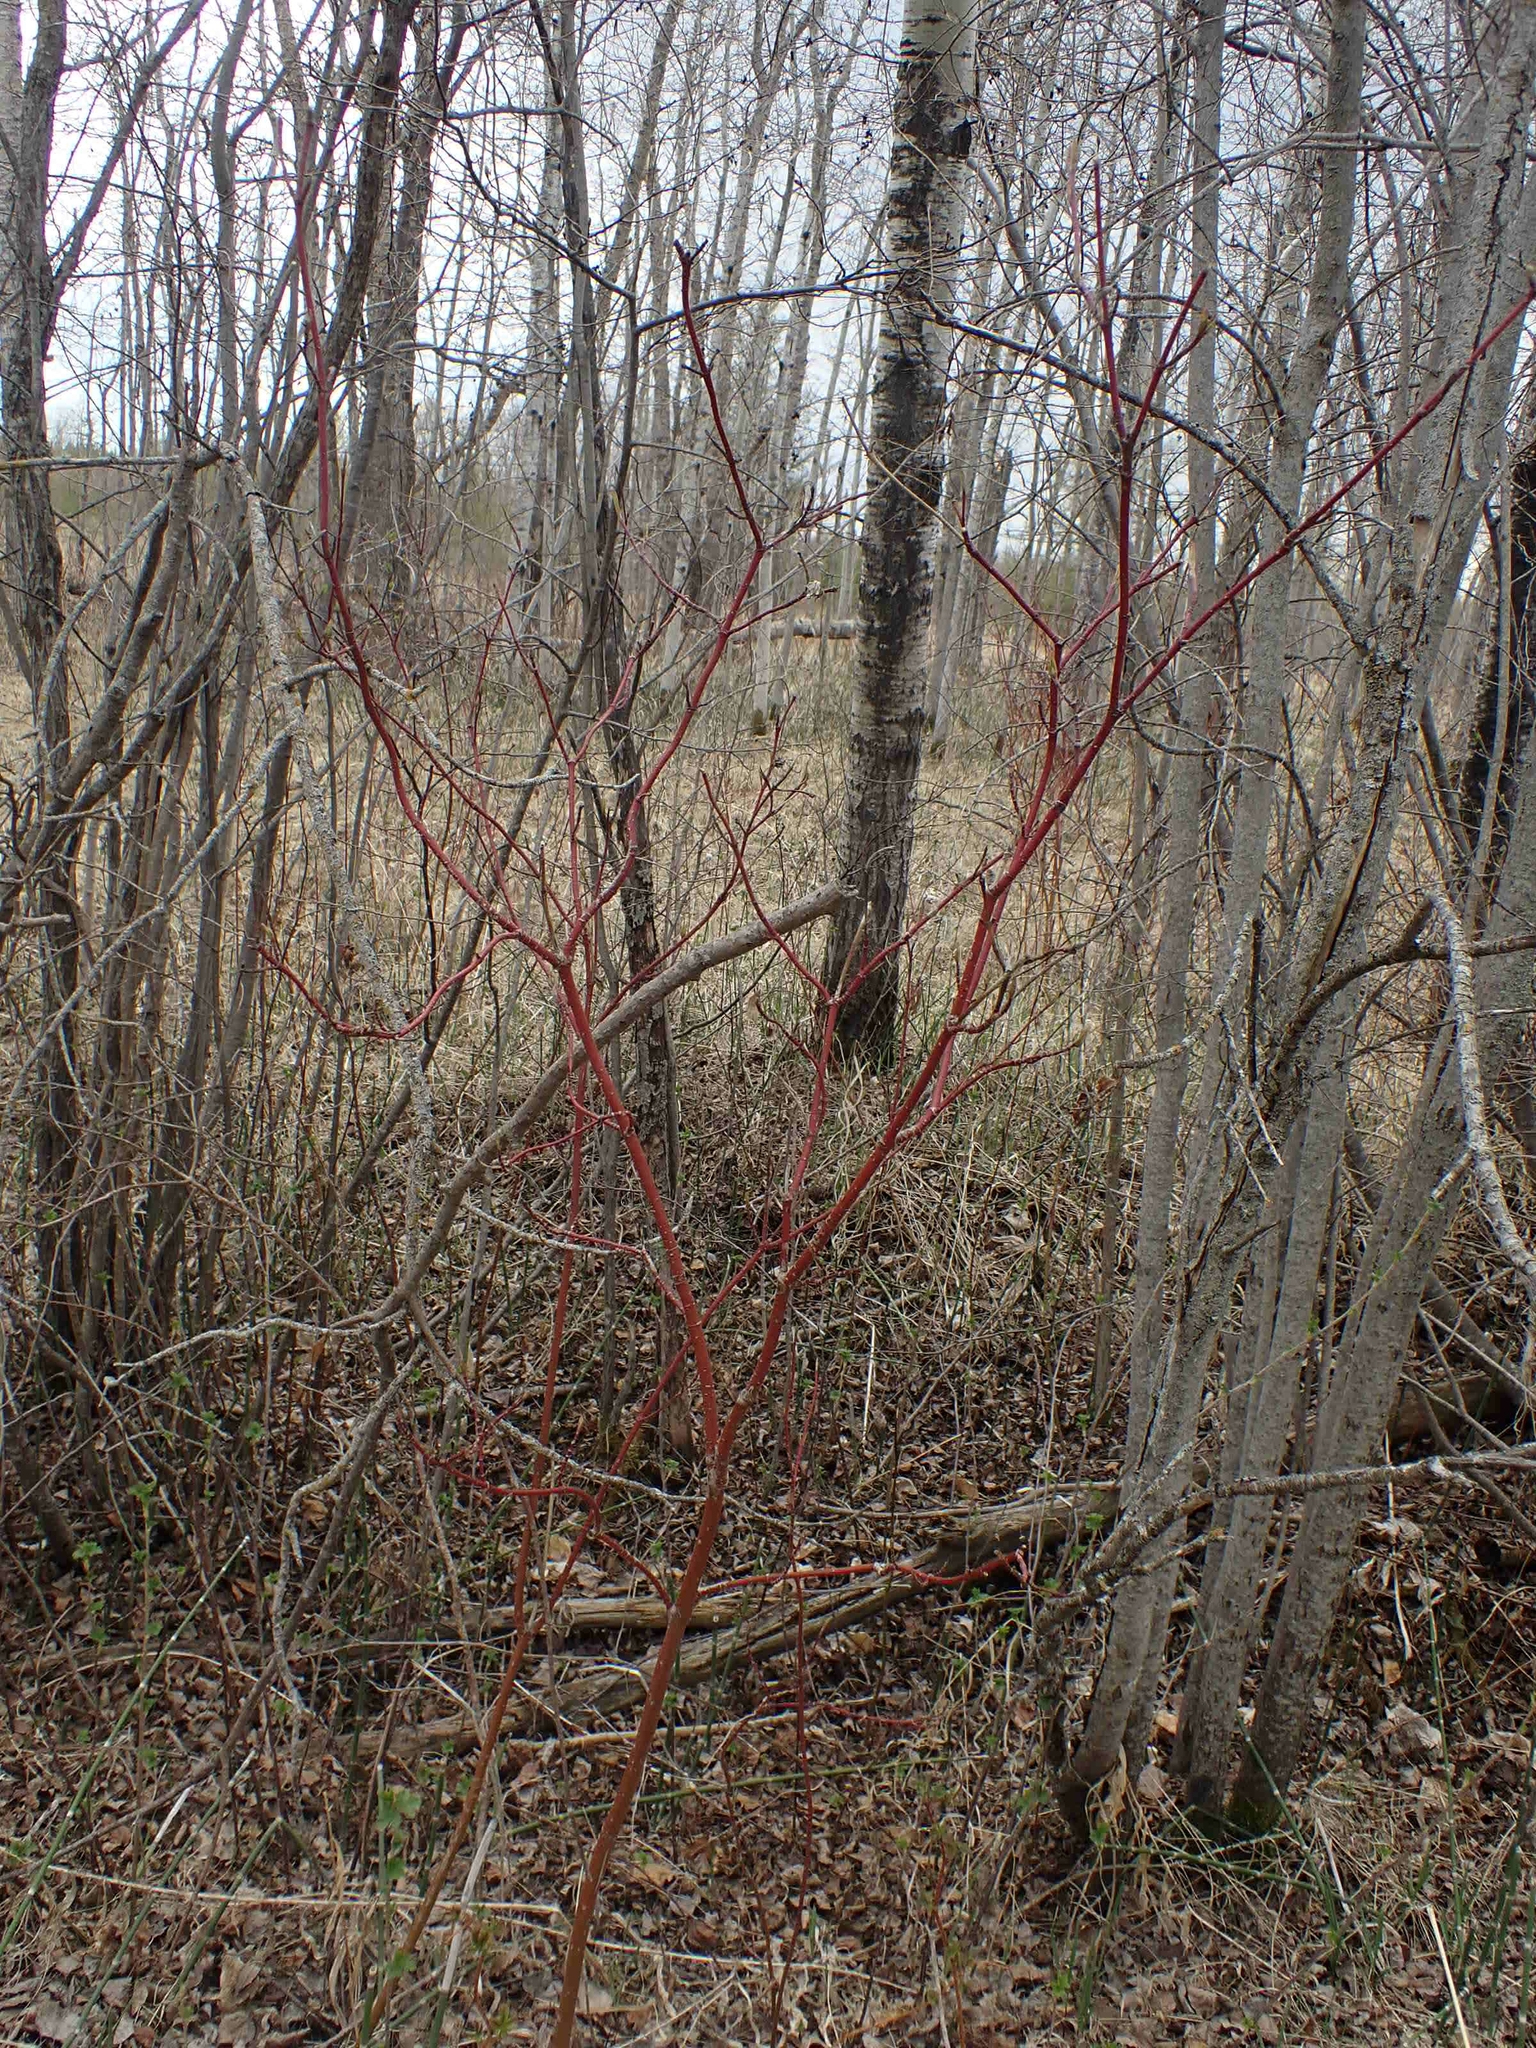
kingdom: Plantae
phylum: Tracheophyta
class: Magnoliopsida
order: Cornales
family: Cornaceae
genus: Cornus
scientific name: Cornus sericea
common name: Red-osier dogwood
